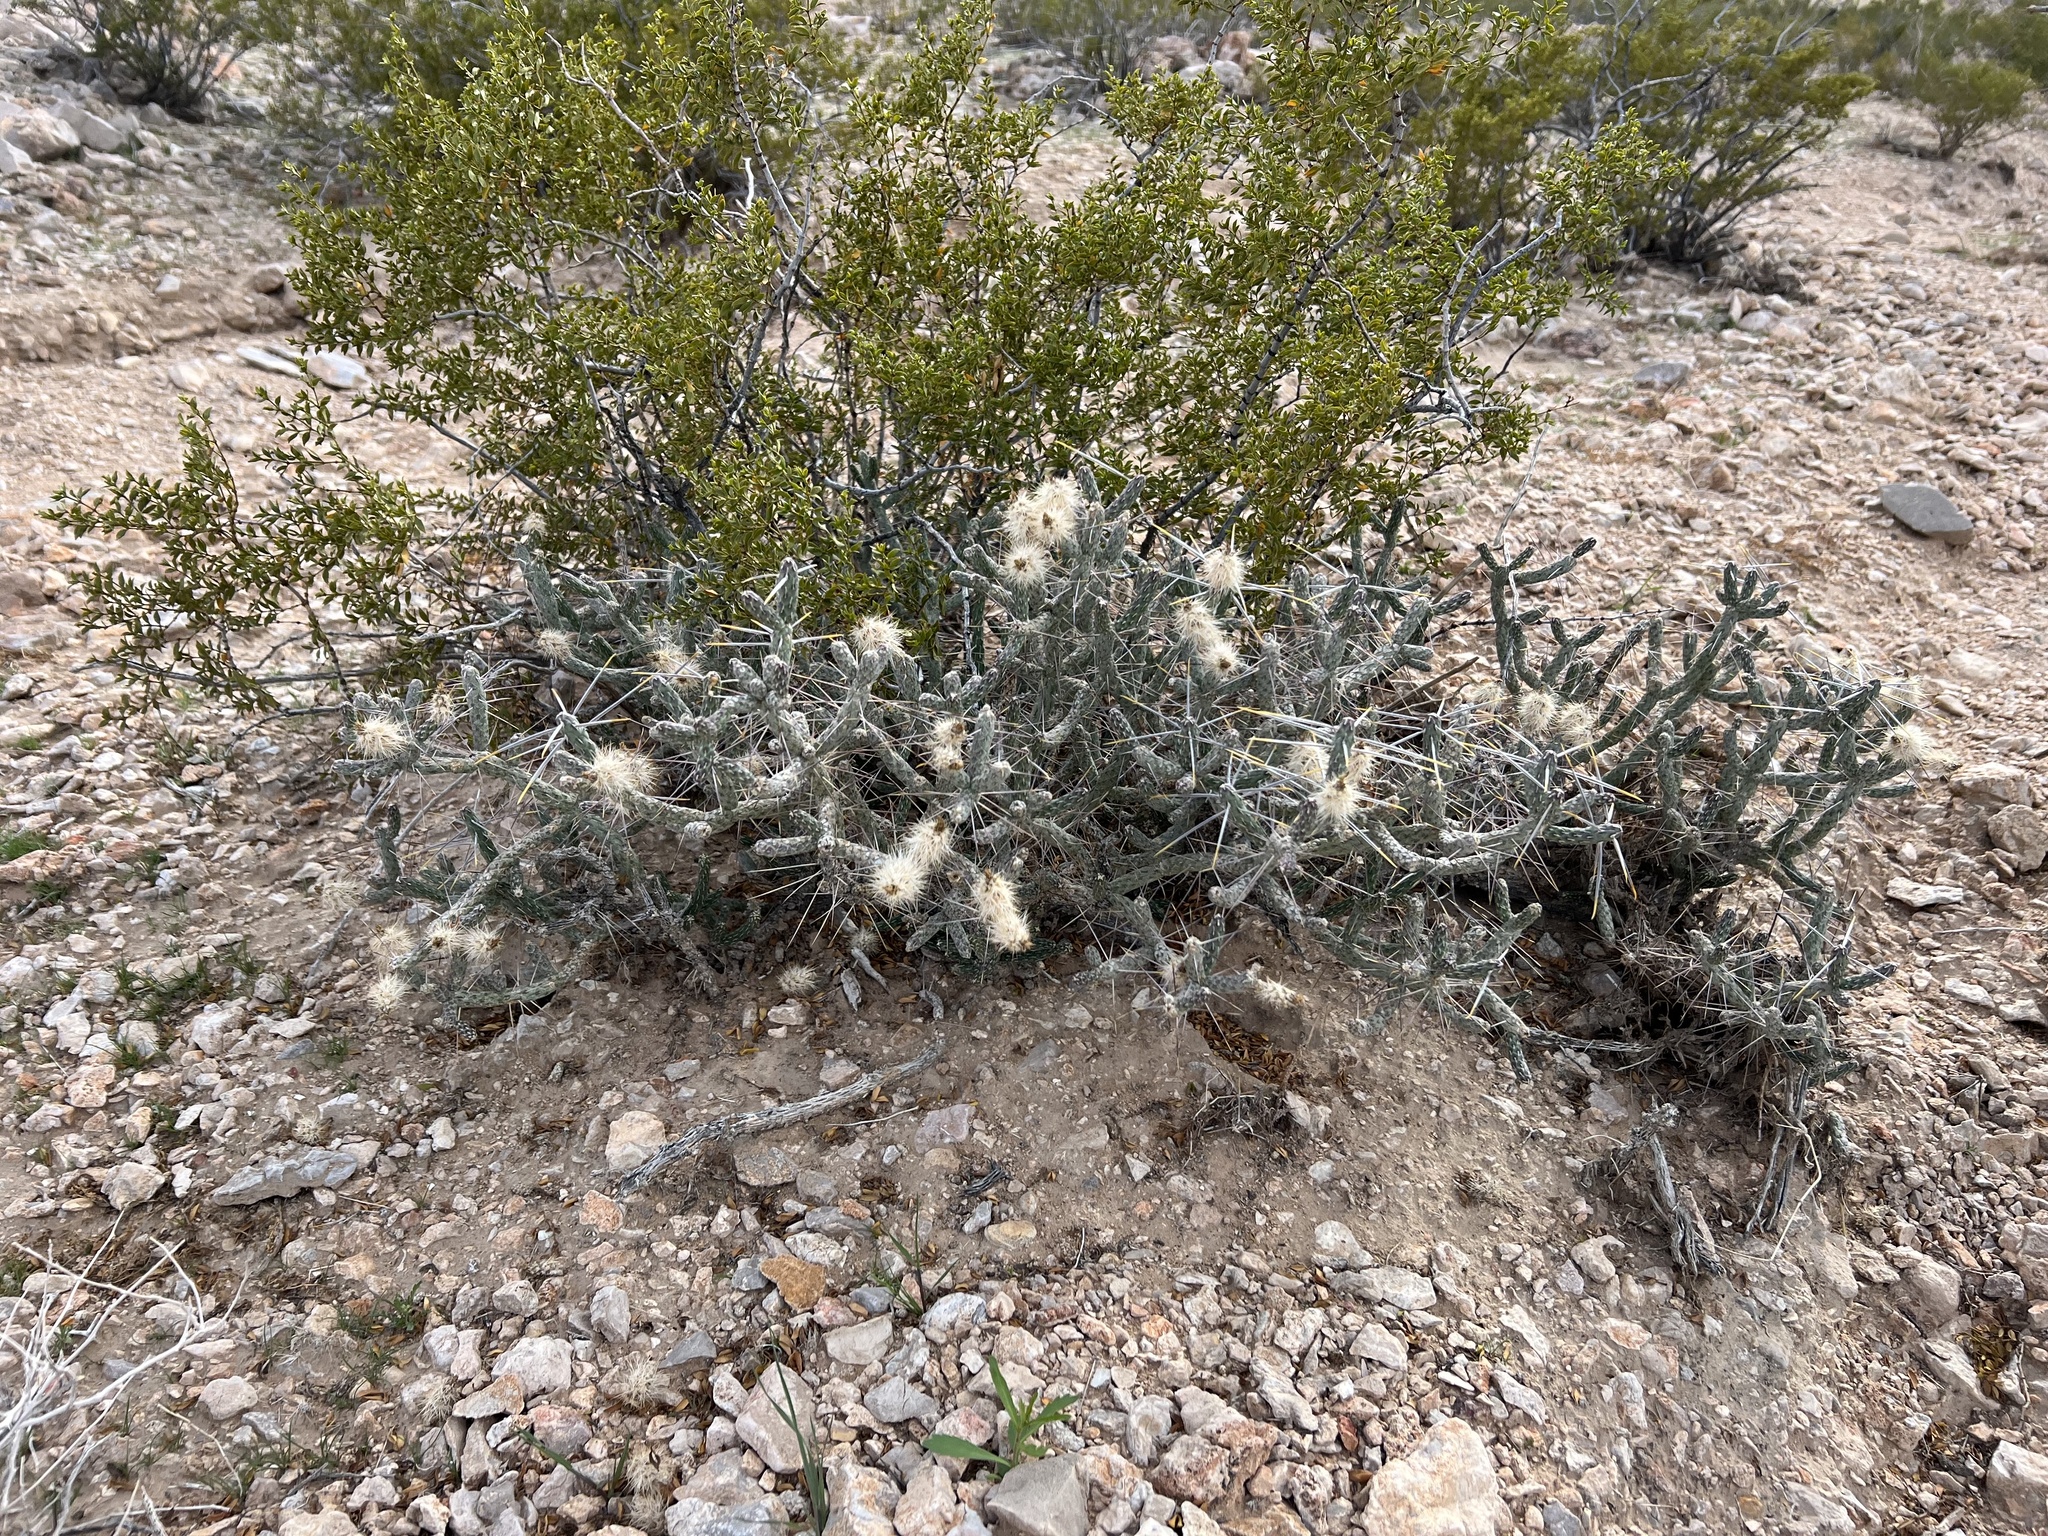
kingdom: Plantae
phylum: Tracheophyta
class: Magnoliopsida
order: Caryophyllales
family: Cactaceae
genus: Cylindropuntia
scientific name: Cylindropuntia ramosissima
